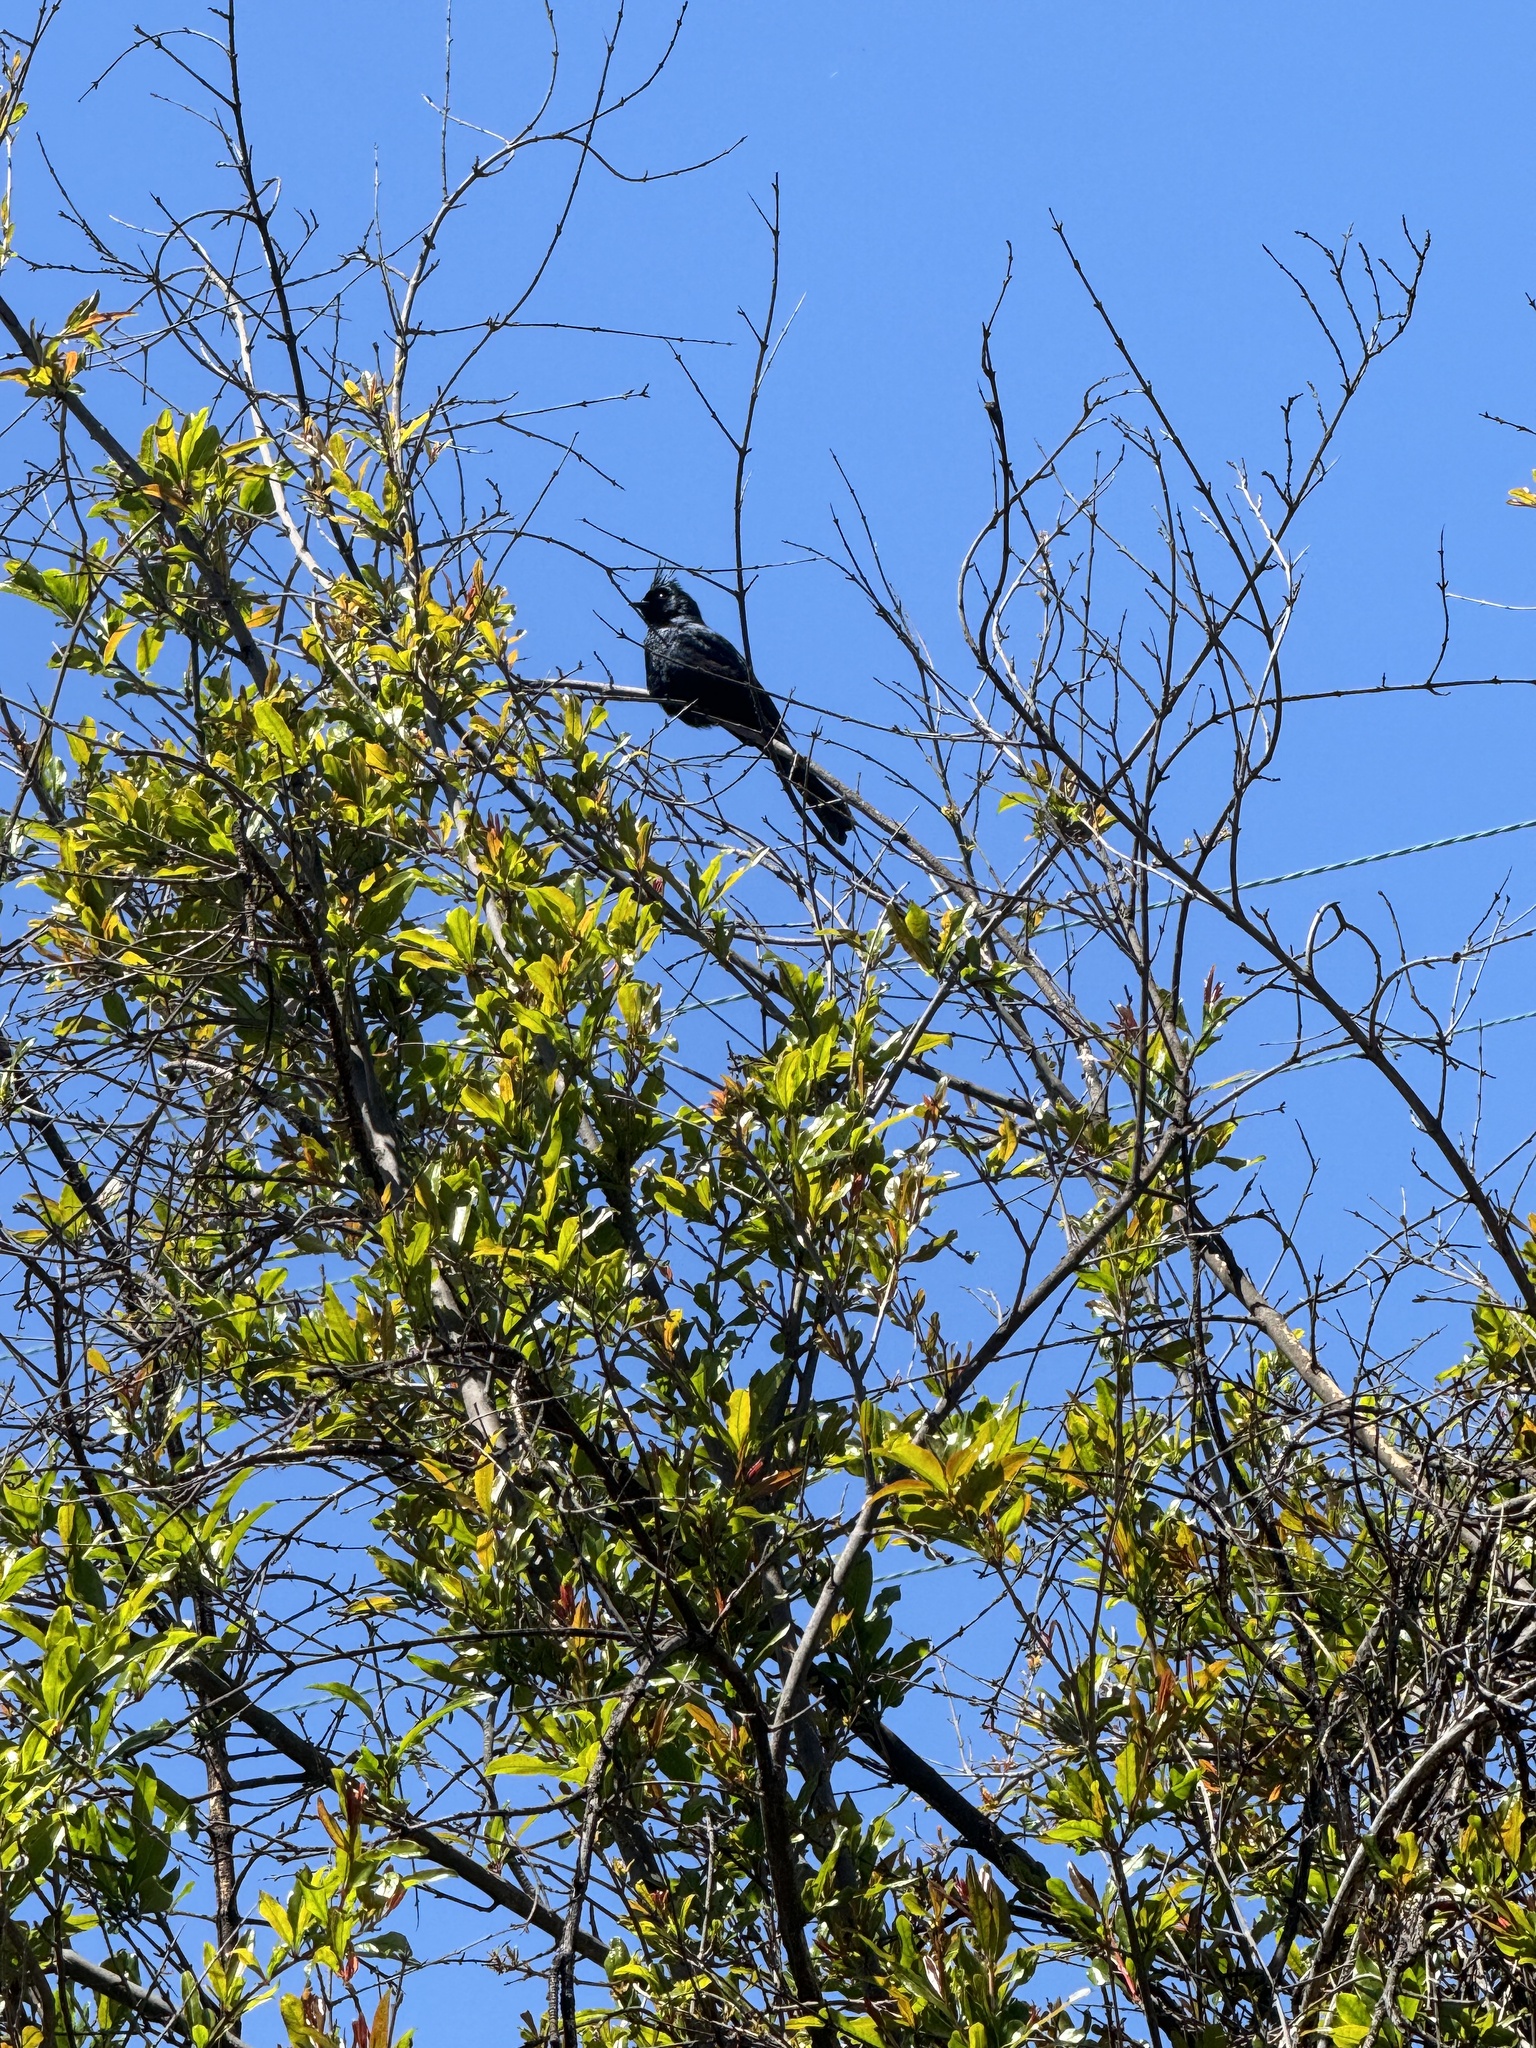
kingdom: Animalia
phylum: Chordata
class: Aves
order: Passeriformes
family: Ptilogonatidae
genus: Phainopepla
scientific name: Phainopepla nitens
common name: Phainopepla
